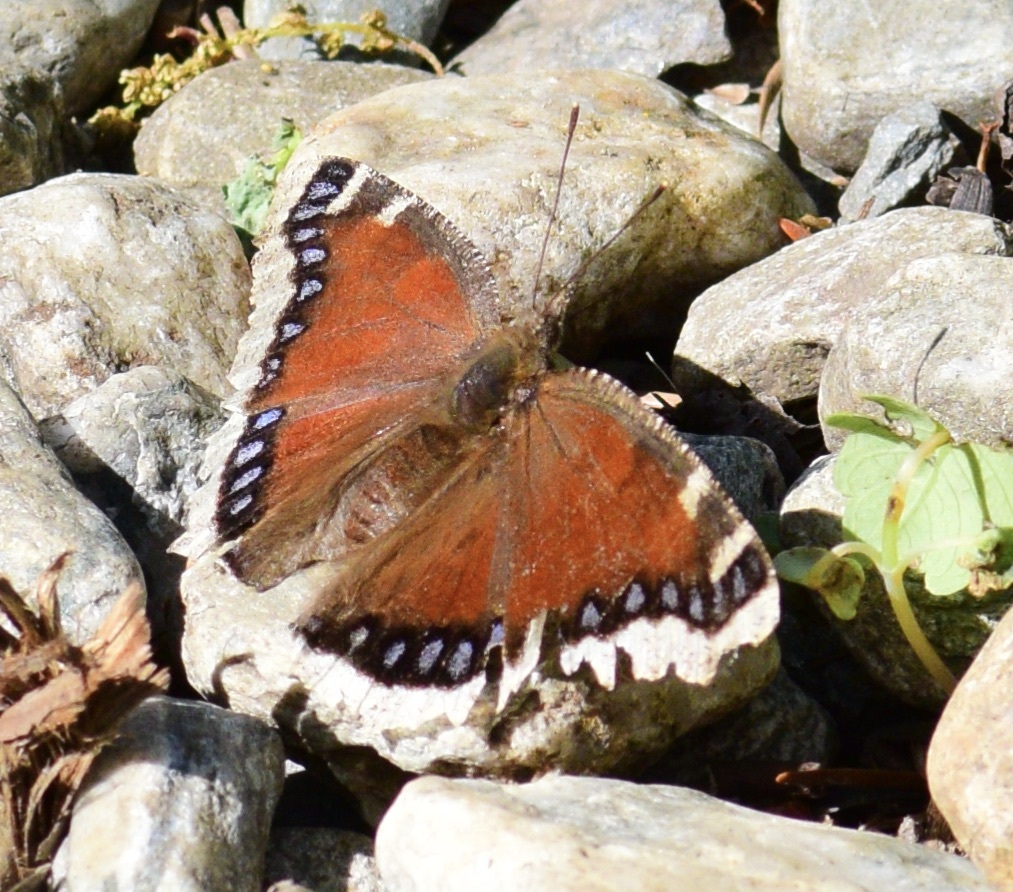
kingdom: Animalia
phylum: Arthropoda
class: Insecta
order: Lepidoptera
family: Nymphalidae
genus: Nymphalis
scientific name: Nymphalis antiopa
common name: Camberwell beauty
